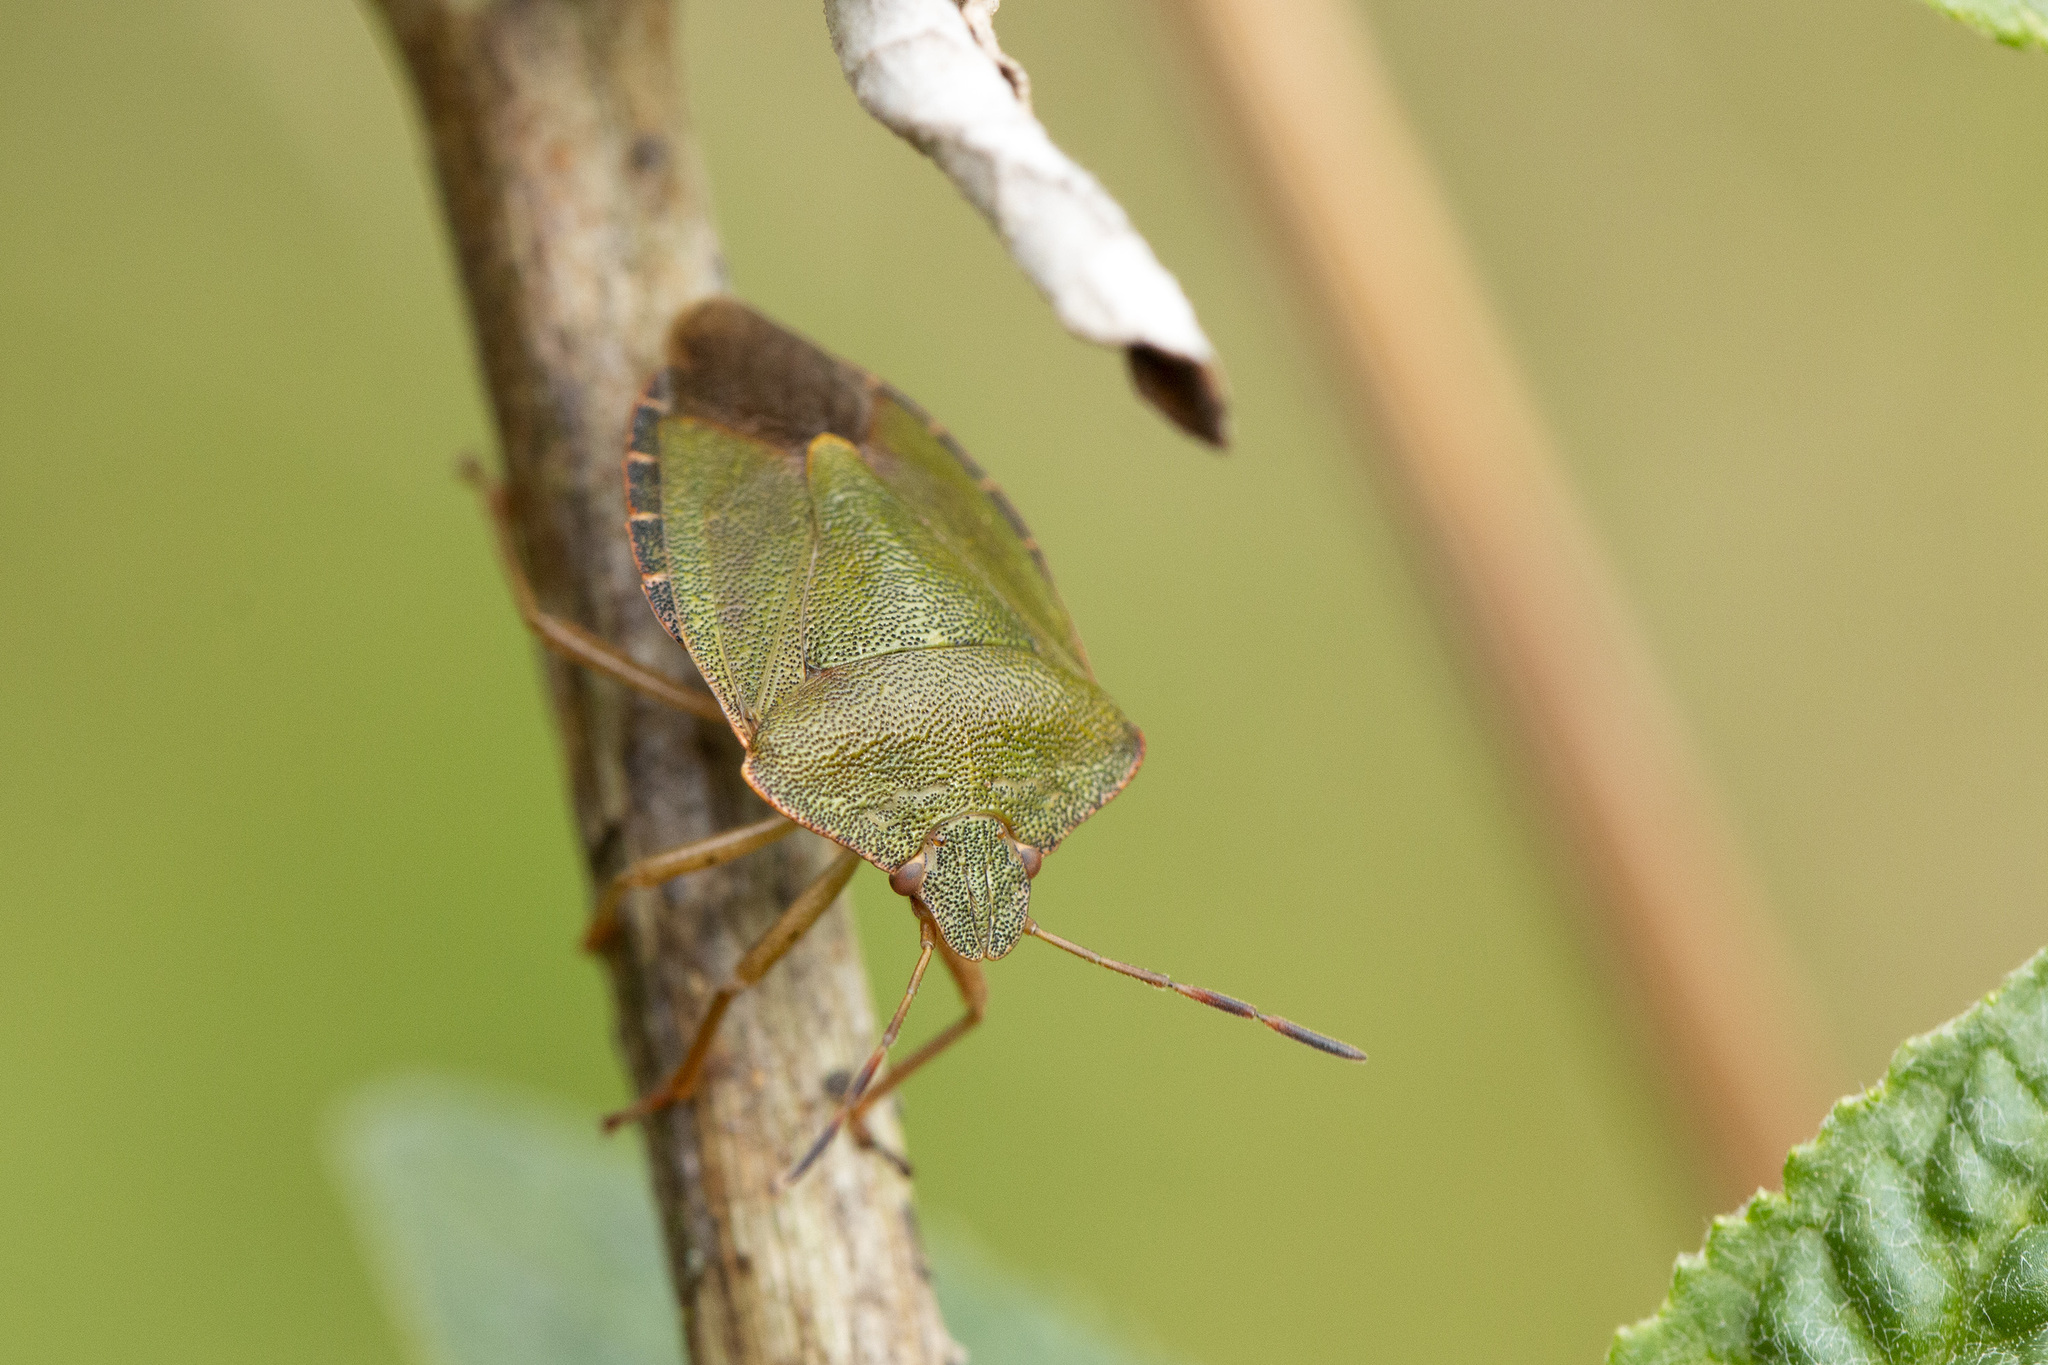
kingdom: Animalia
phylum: Arthropoda
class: Insecta
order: Hemiptera
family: Pentatomidae
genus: Palomena
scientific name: Palomena prasina
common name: Green shieldbug
